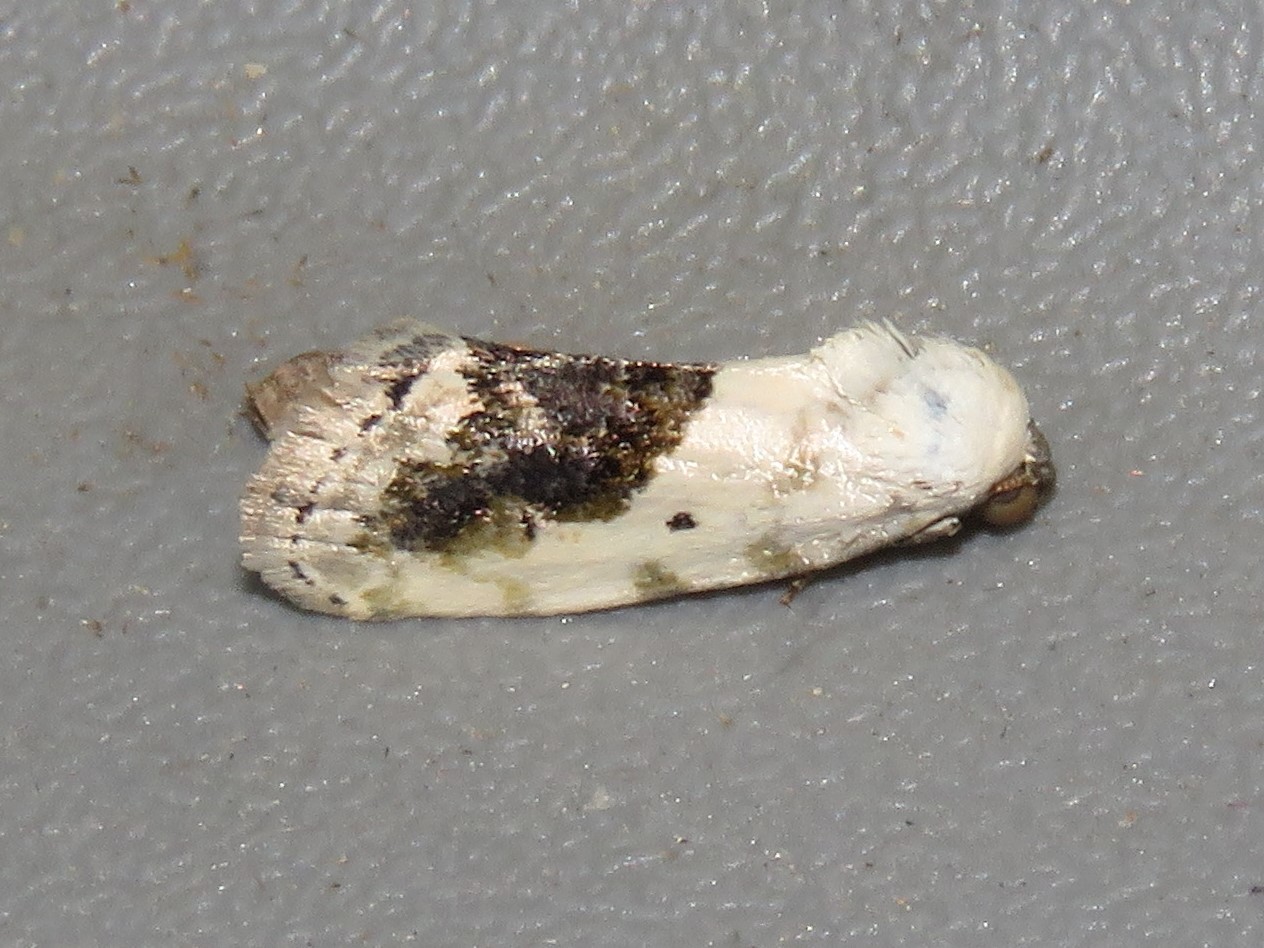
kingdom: Animalia
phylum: Arthropoda
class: Insecta
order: Lepidoptera
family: Noctuidae
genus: Acontia
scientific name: Acontia erastrioides
